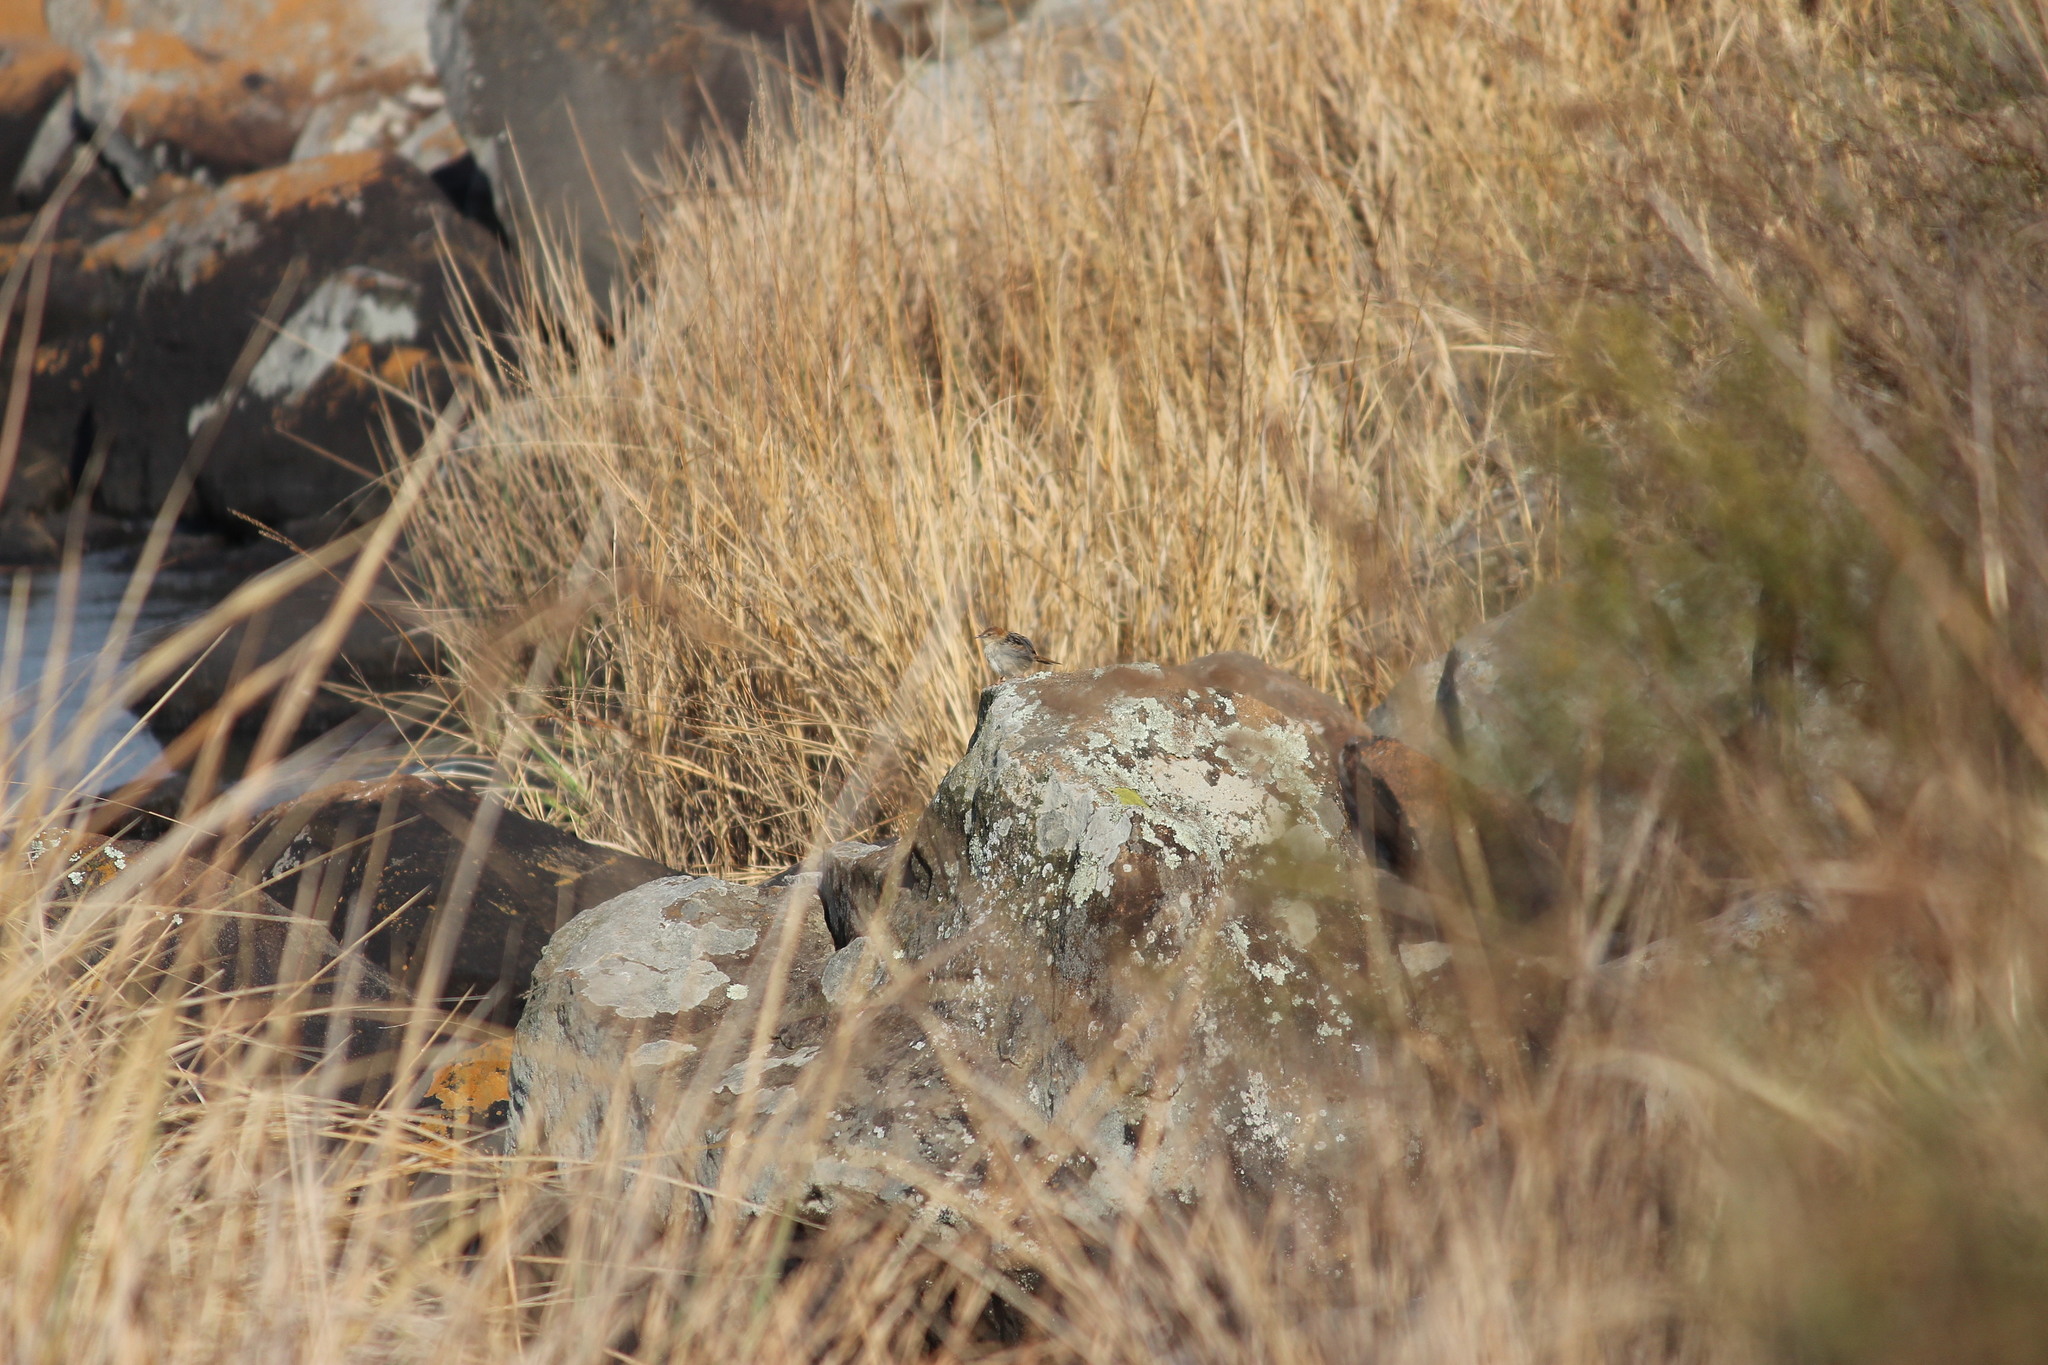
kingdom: Animalia
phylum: Chordata
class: Aves
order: Passeriformes
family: Cisticolidae
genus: Cisticola
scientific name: Cisticola tinniens
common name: Levaillant's cisticola
